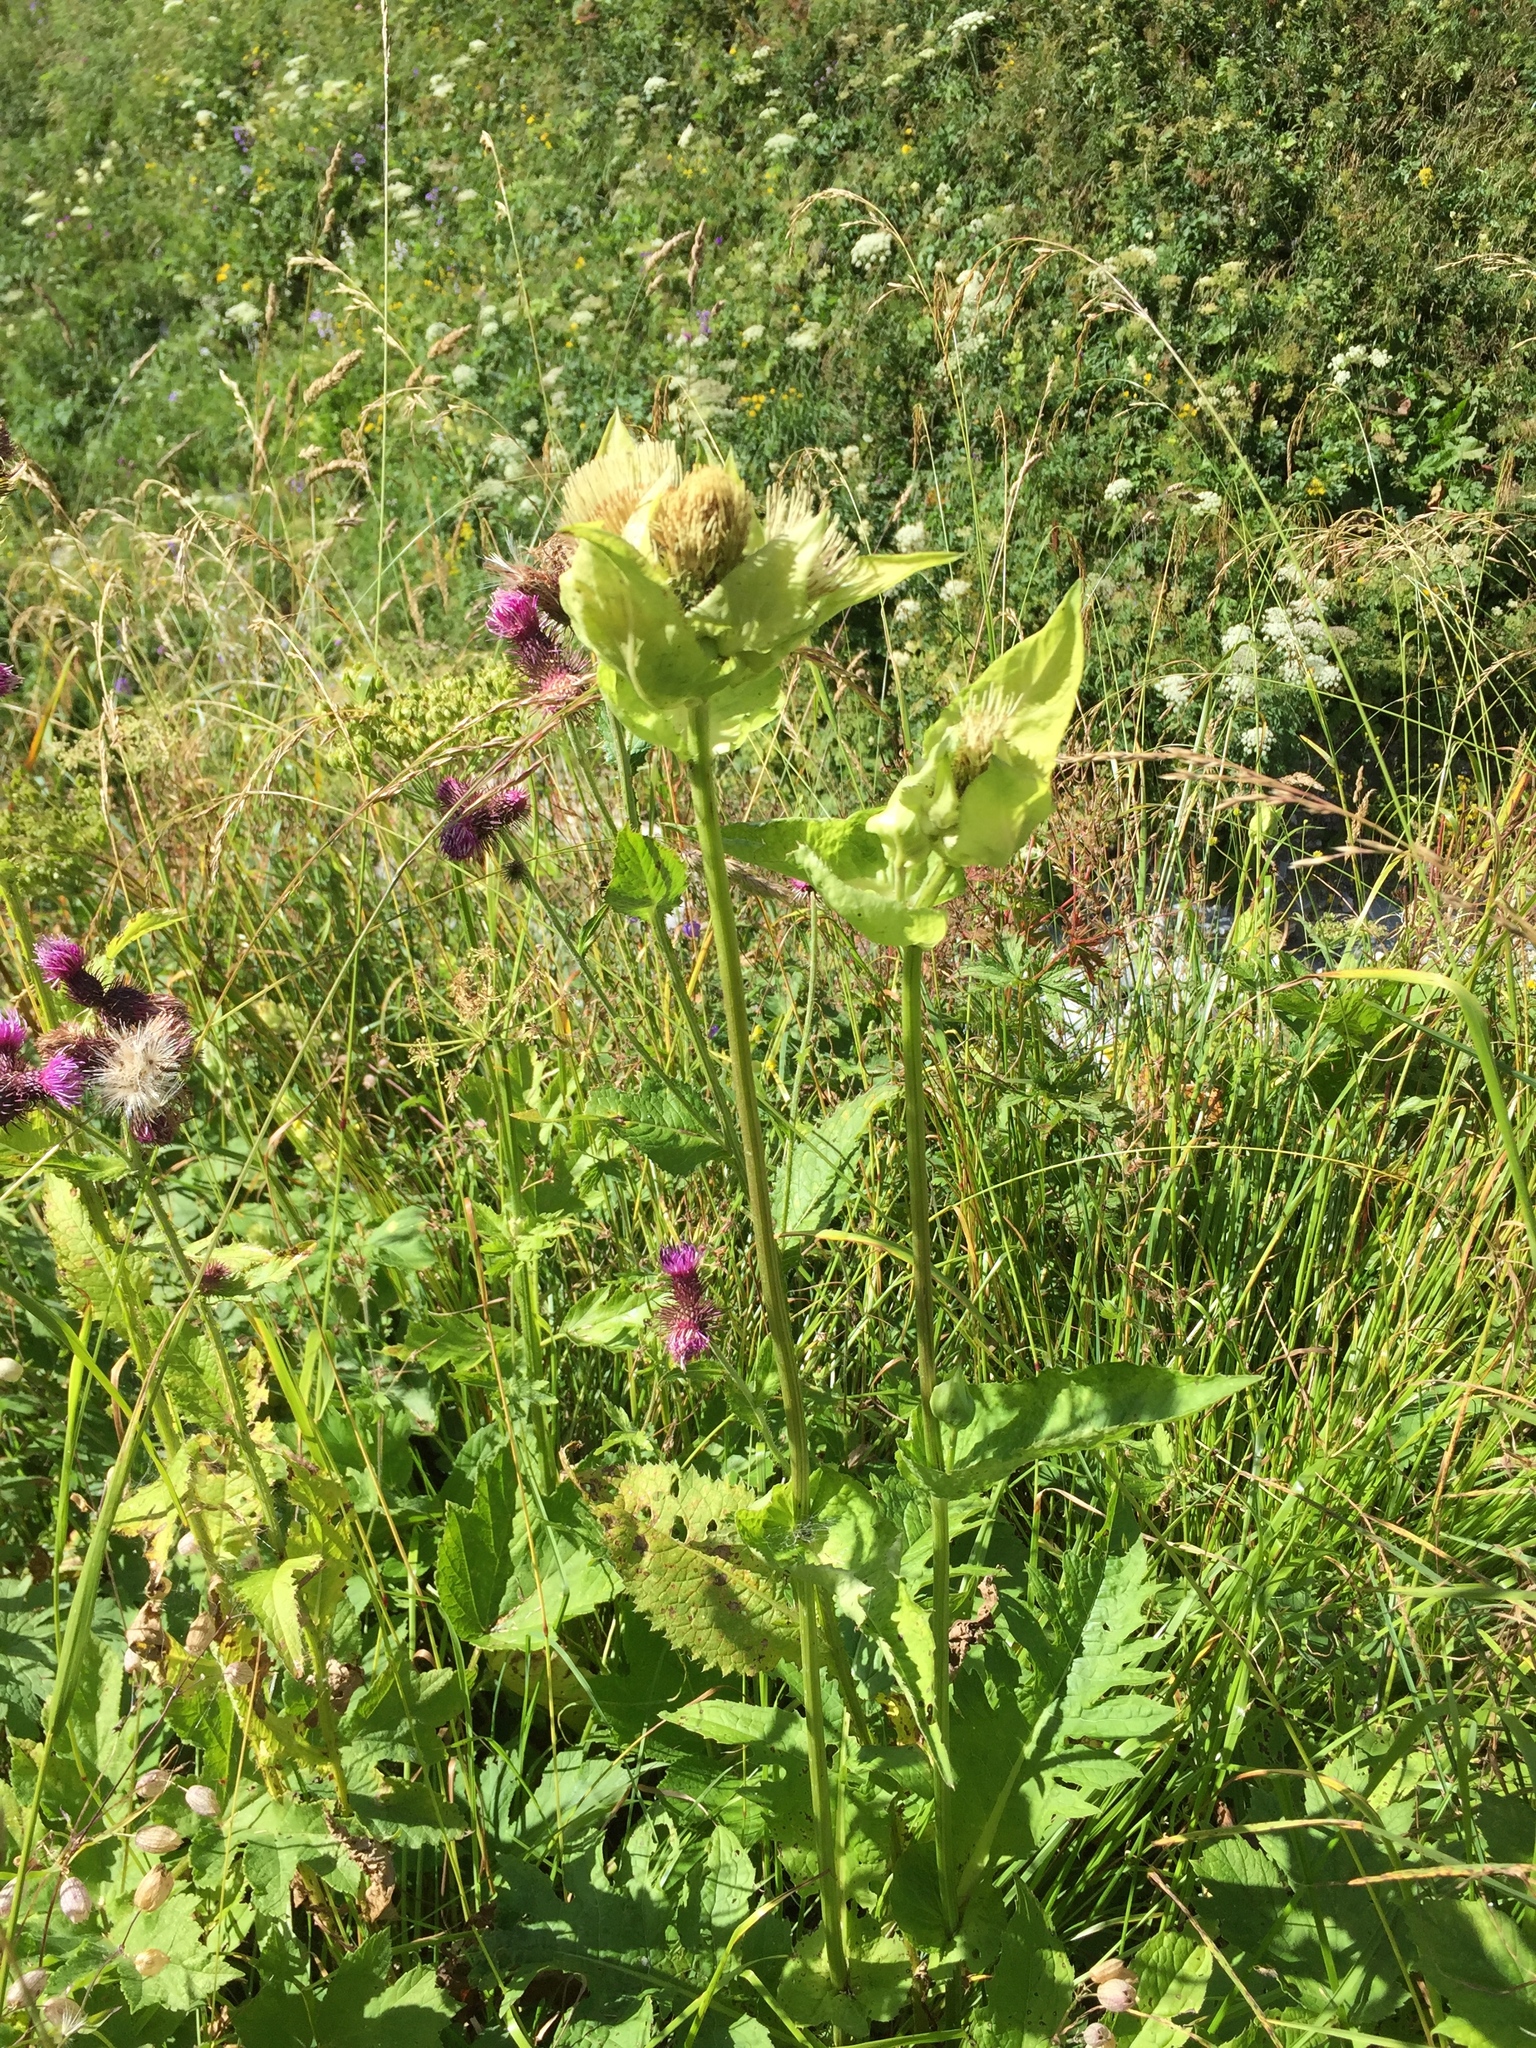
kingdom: Plantae
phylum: Tracheophyta
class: Magnoliopsida
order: Asterales
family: Asteraceae
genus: Cirsium
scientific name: Cirsium oleraceum
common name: Cabbage thistle
